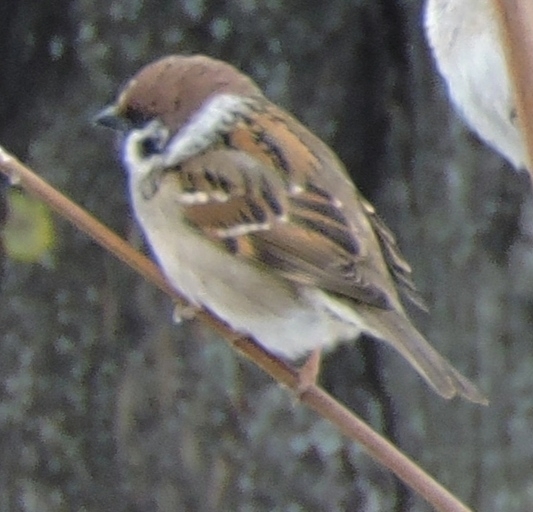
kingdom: Animalia
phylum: Chordata
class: Aves
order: Passeriformes
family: Passeridae
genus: Passer
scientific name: Passer montanus
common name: Eurasian tree sparrow
